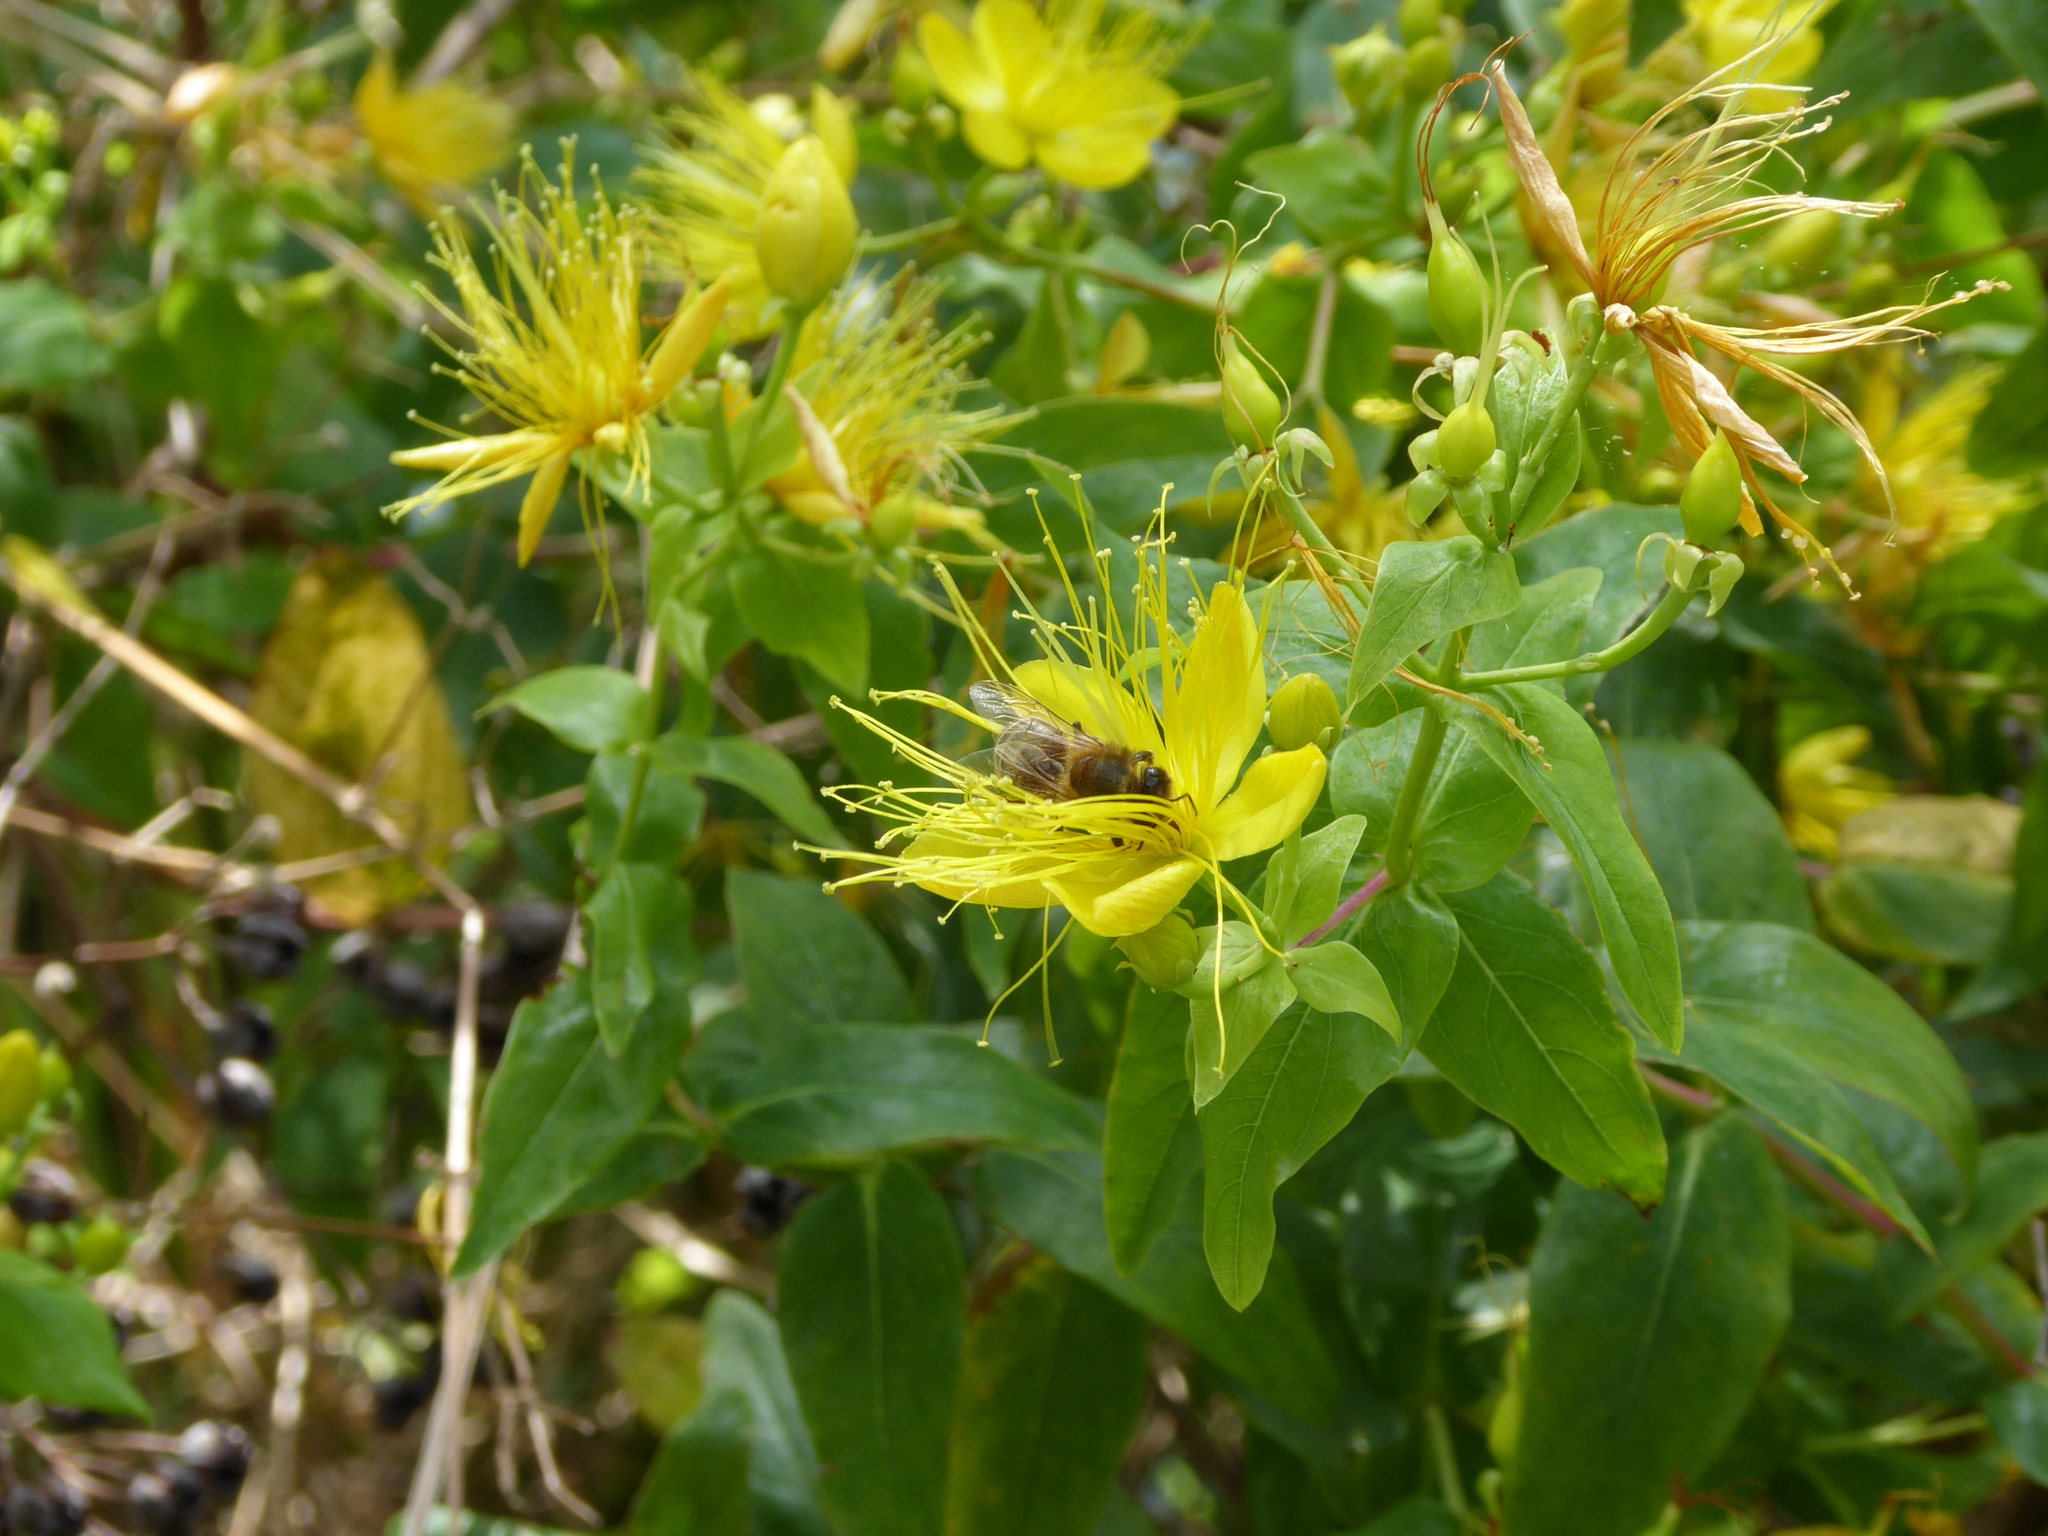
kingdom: Animalia
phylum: Arthropoda
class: Insecta
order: Hymenoptera
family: Apidae
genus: Apis
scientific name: Apis mellifera
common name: Honey bee
